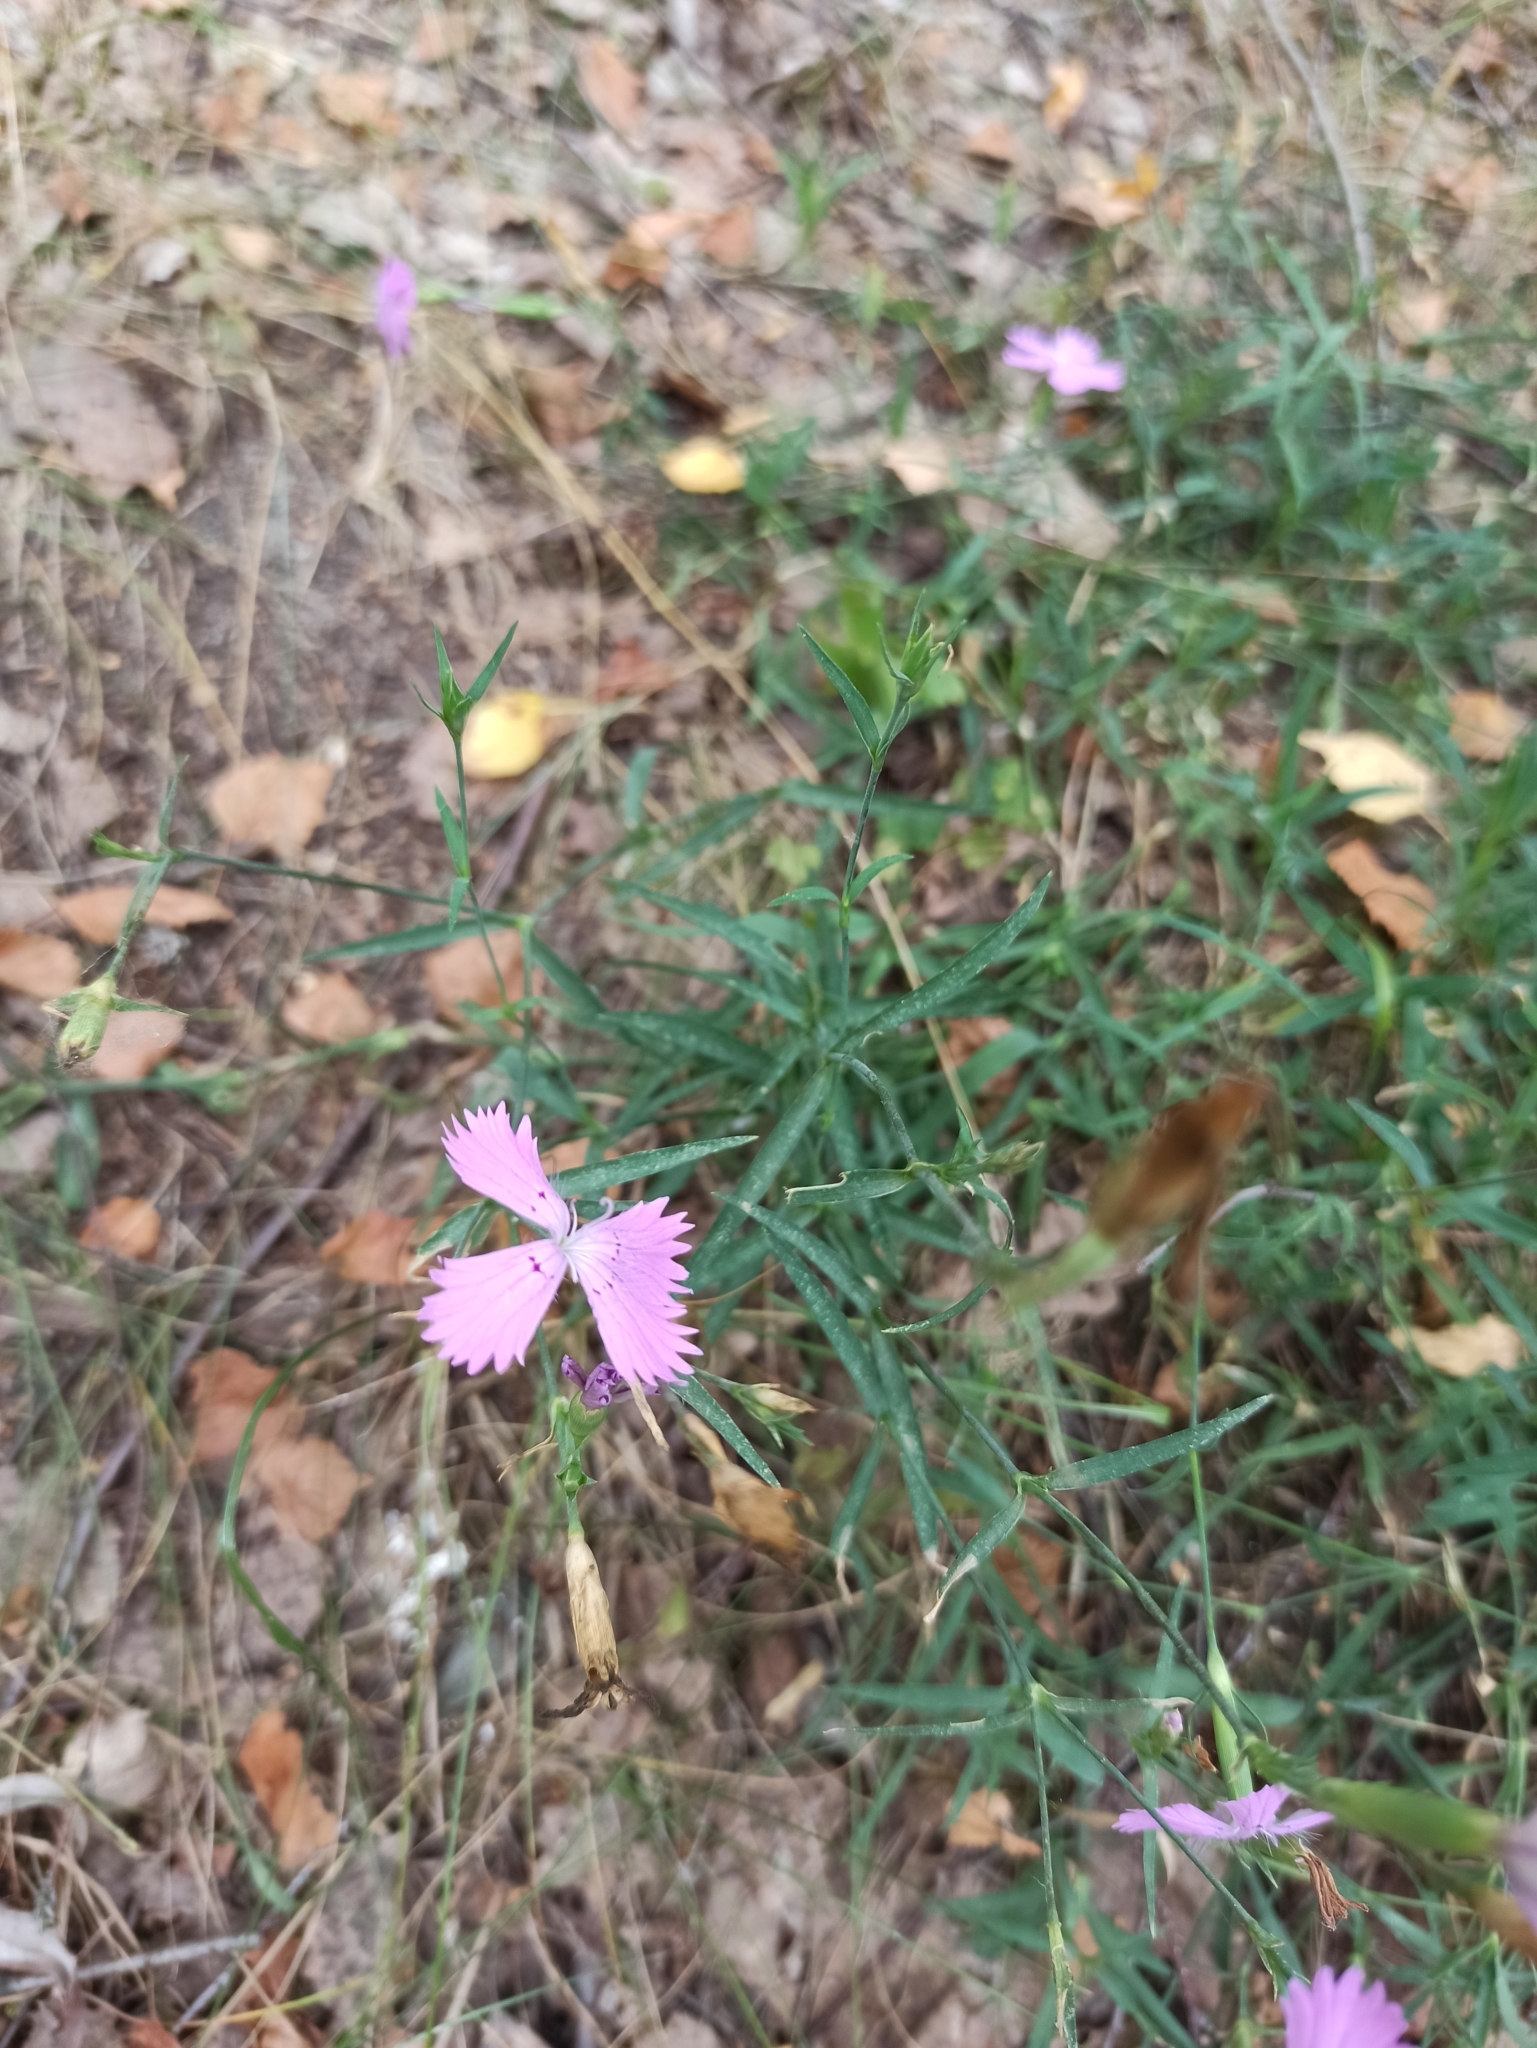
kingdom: Plantae
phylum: Tracheophyta
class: Magnoliopsida
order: Caryophyllales
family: Caryophyllaceae
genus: Dianthus
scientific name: Dianthus chinensis
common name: Rainbow pink
